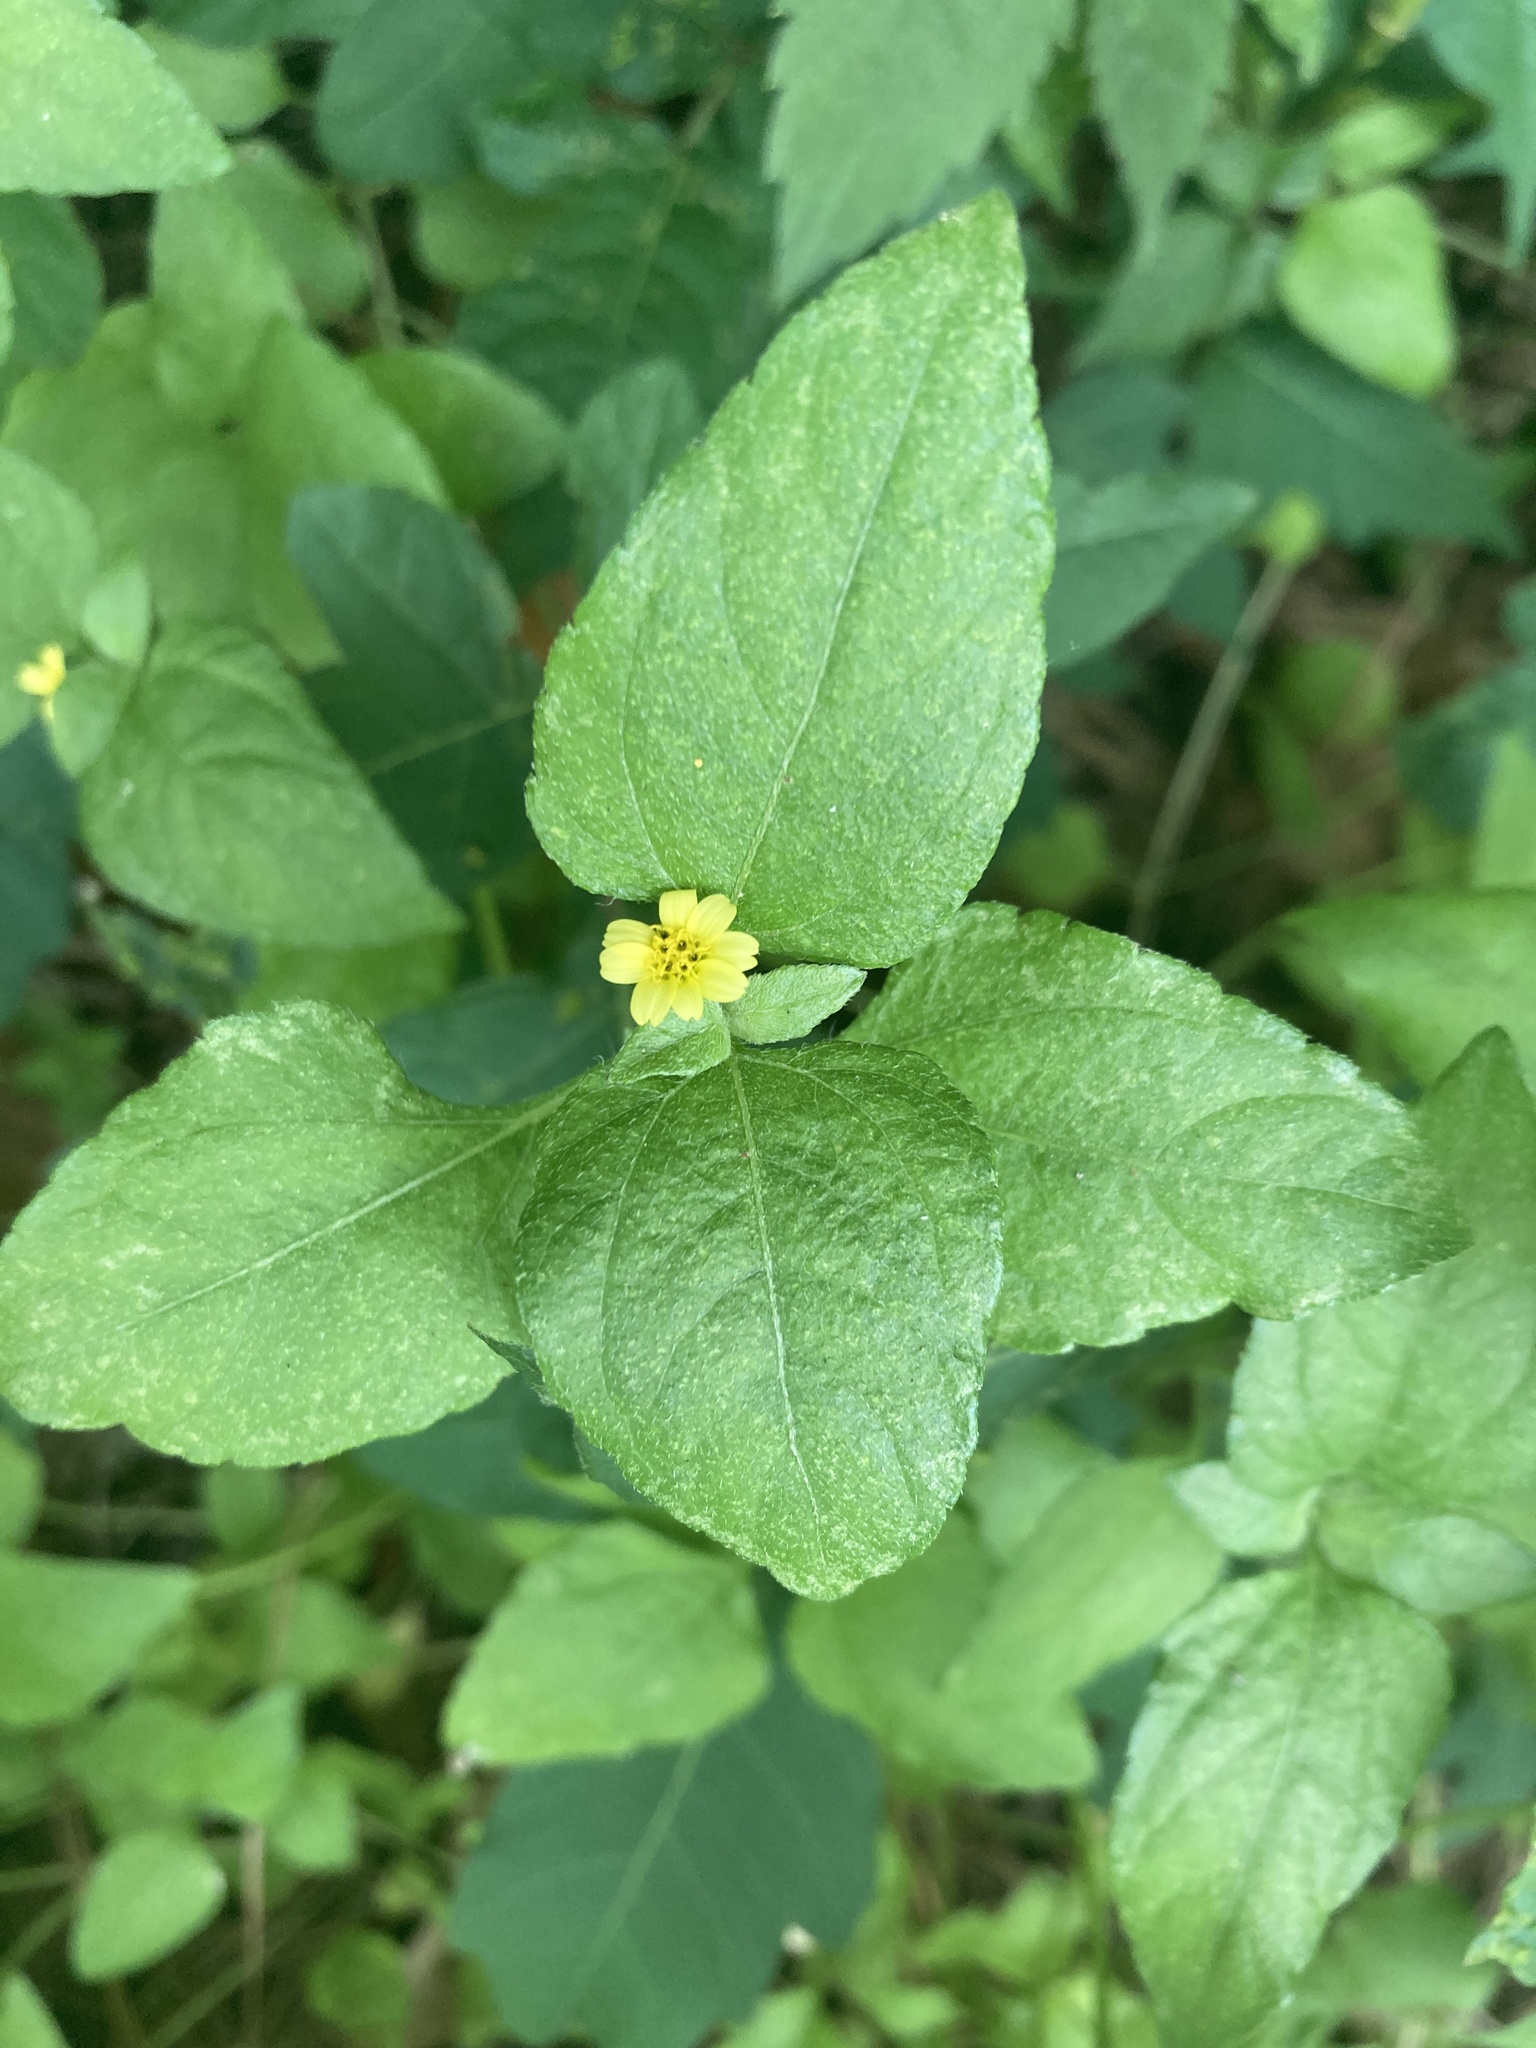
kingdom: Plantae
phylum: Tracheophyta
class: Magnoliopsida
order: Asterales
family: Asteraceae
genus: Calyptocarpus
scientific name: Calyptocarpus vialis
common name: Straggler daisy
